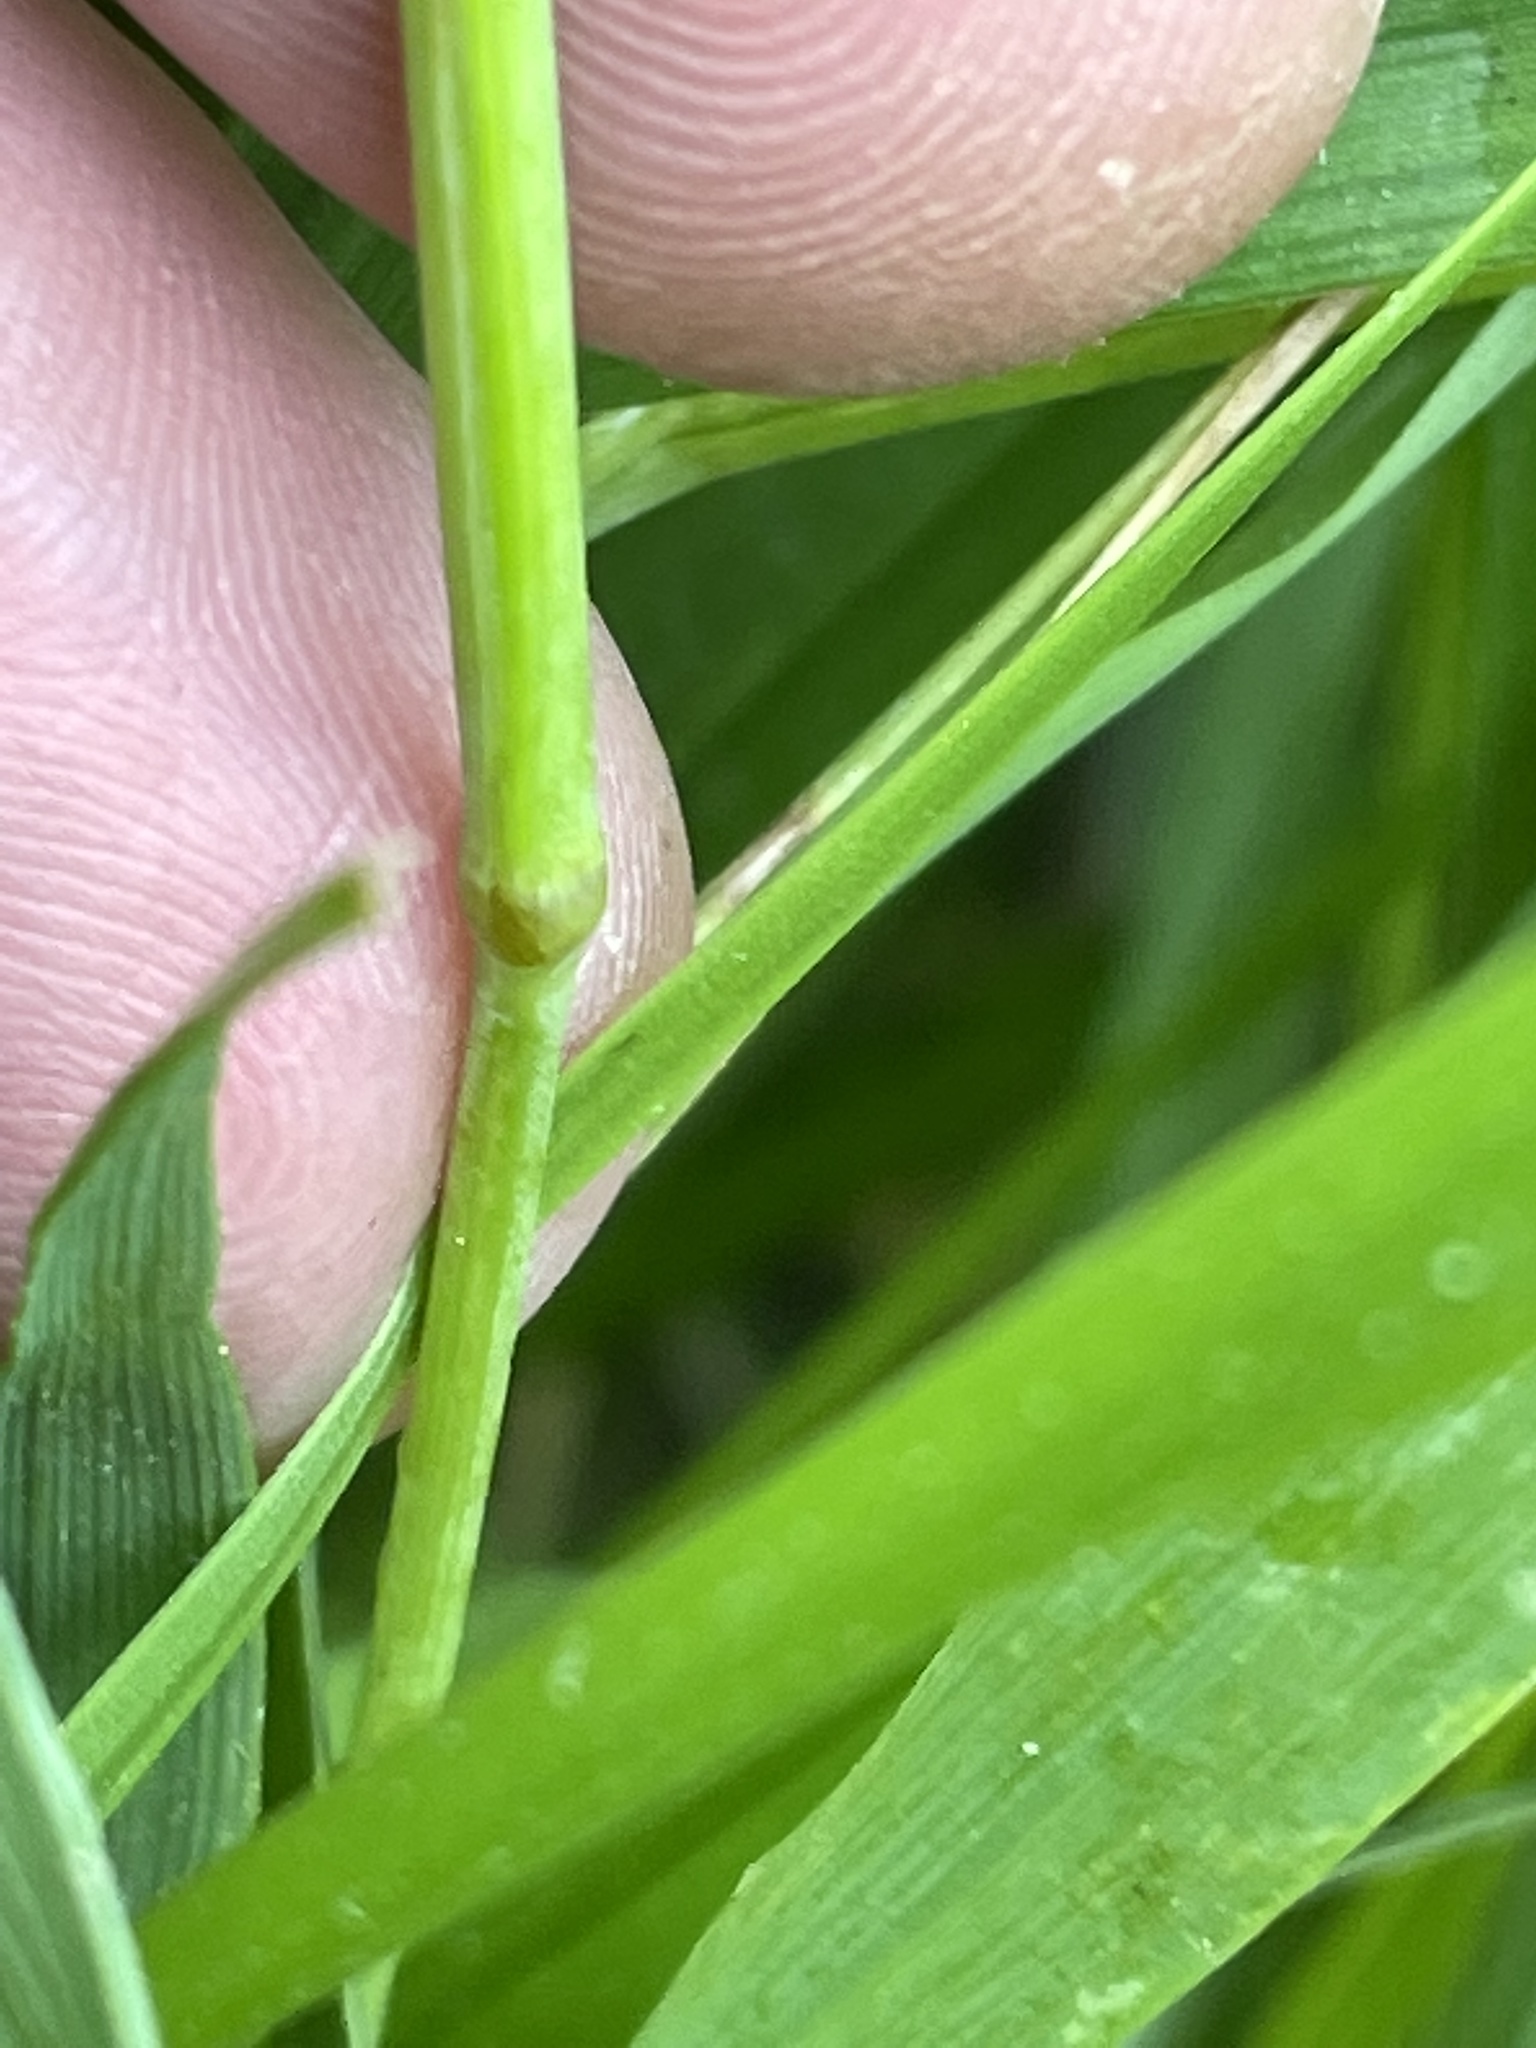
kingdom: Plantae
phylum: Tracheophyta
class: Liliopsida
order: Poales
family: Poaceae
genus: Briza
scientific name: Briza minor
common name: Lesser quaking-grass
